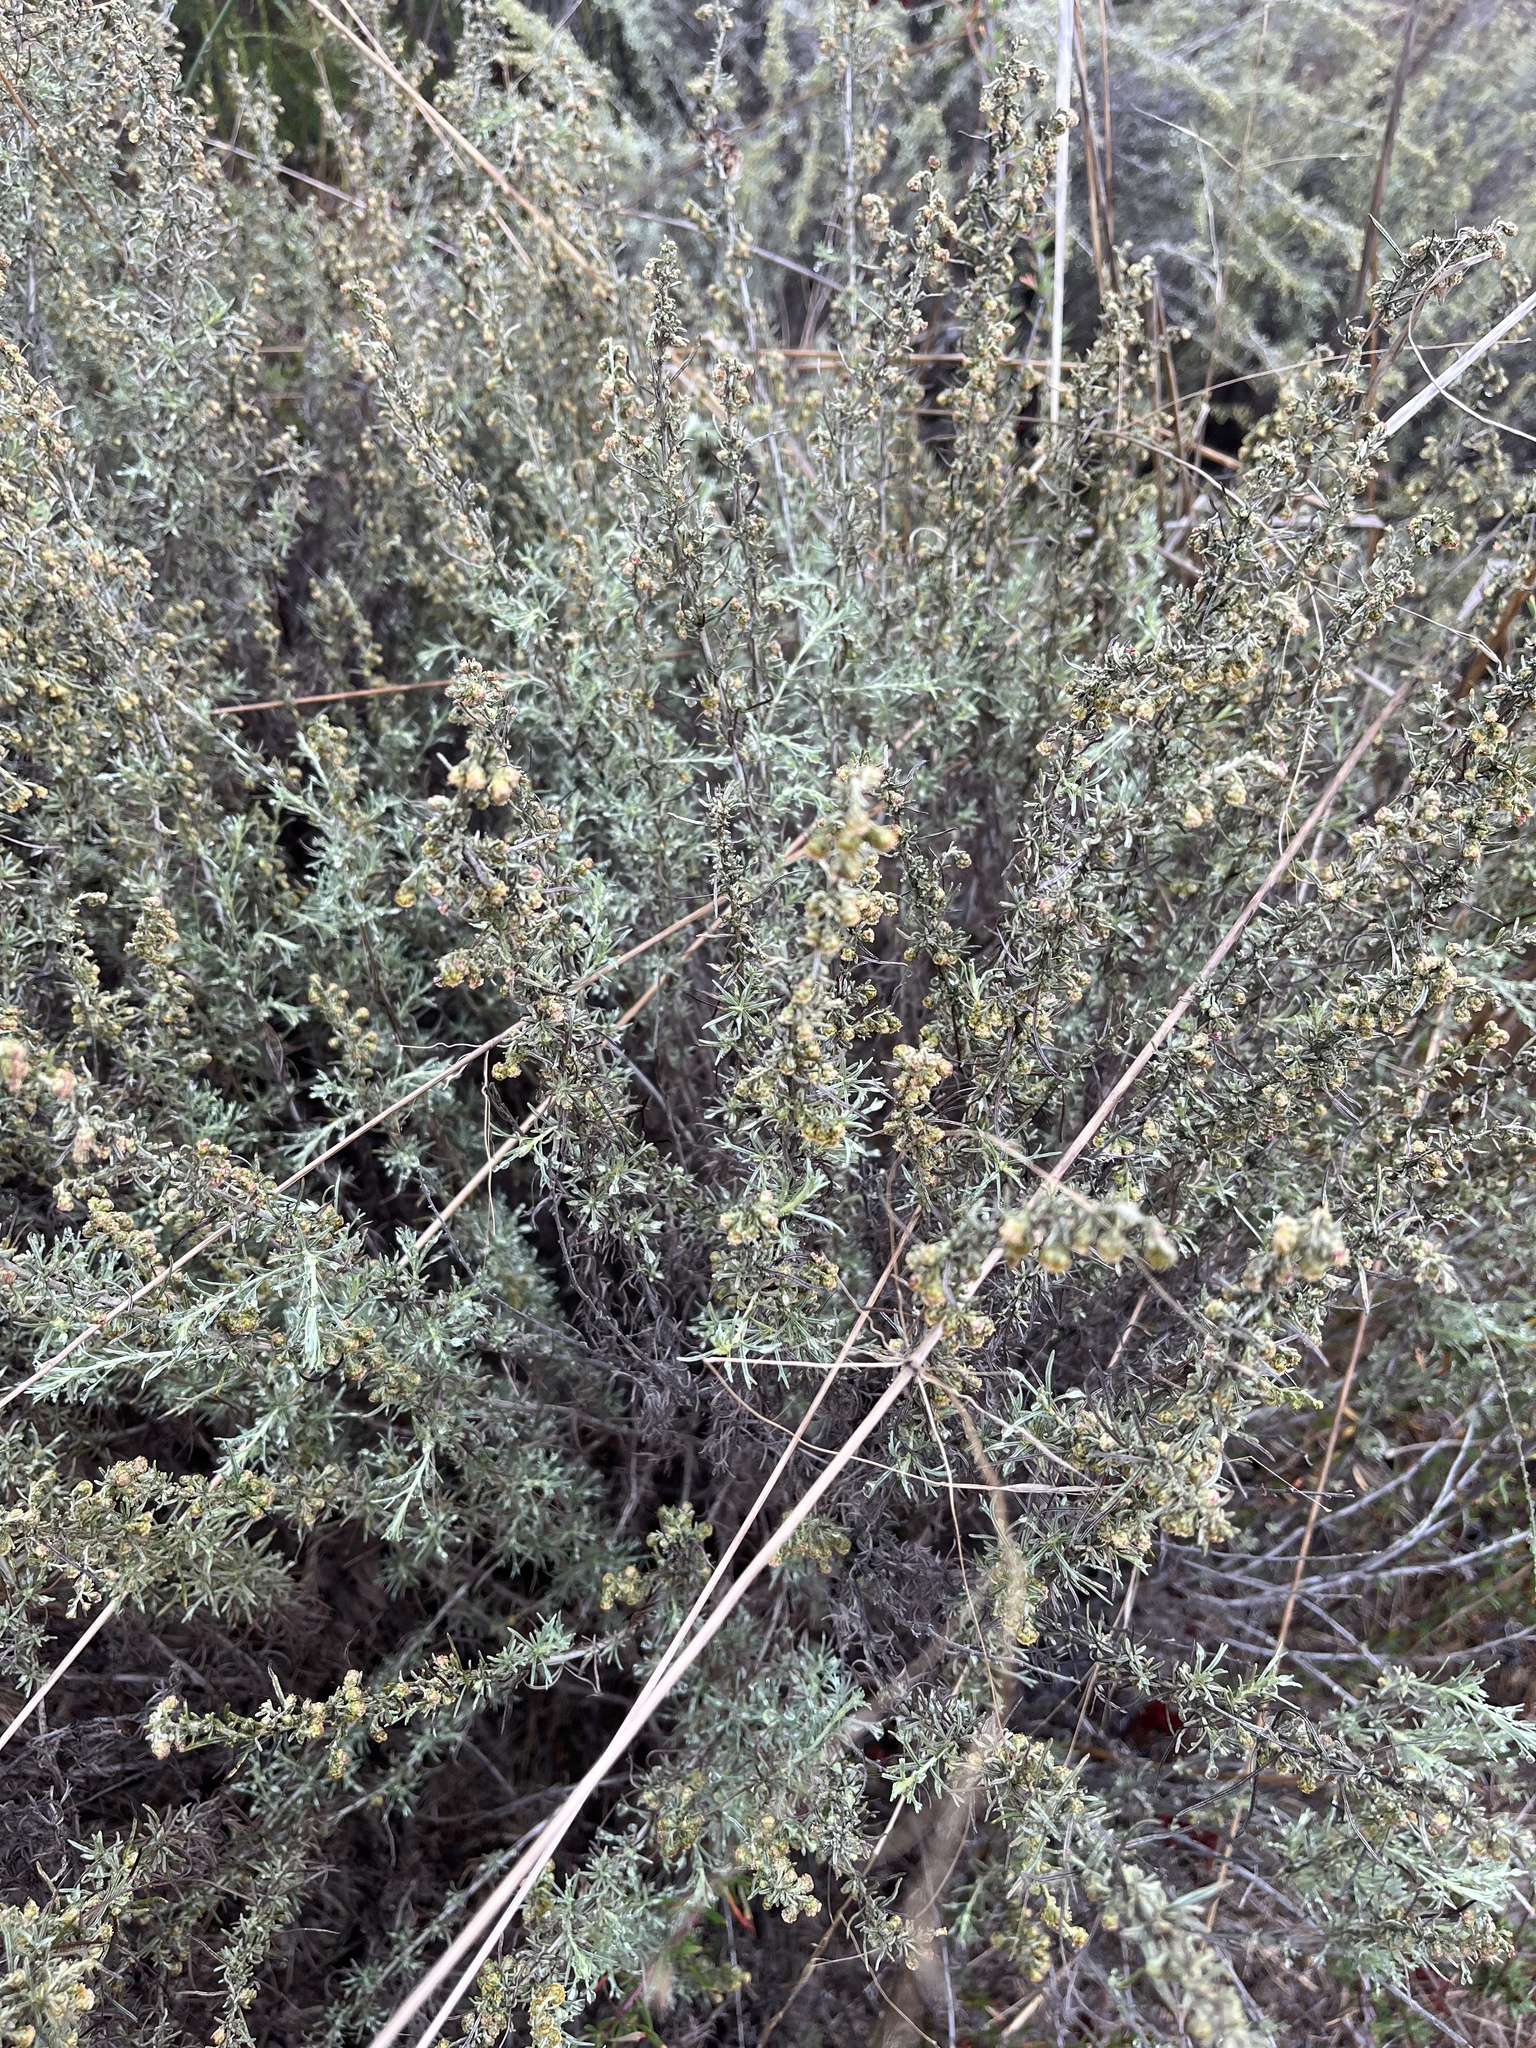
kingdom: Plantae
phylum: Tracheophyta
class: Magnoliopsida
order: Asterales
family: Asteraceae
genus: Artemisia
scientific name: Artemisia californica
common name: California sagebrush
